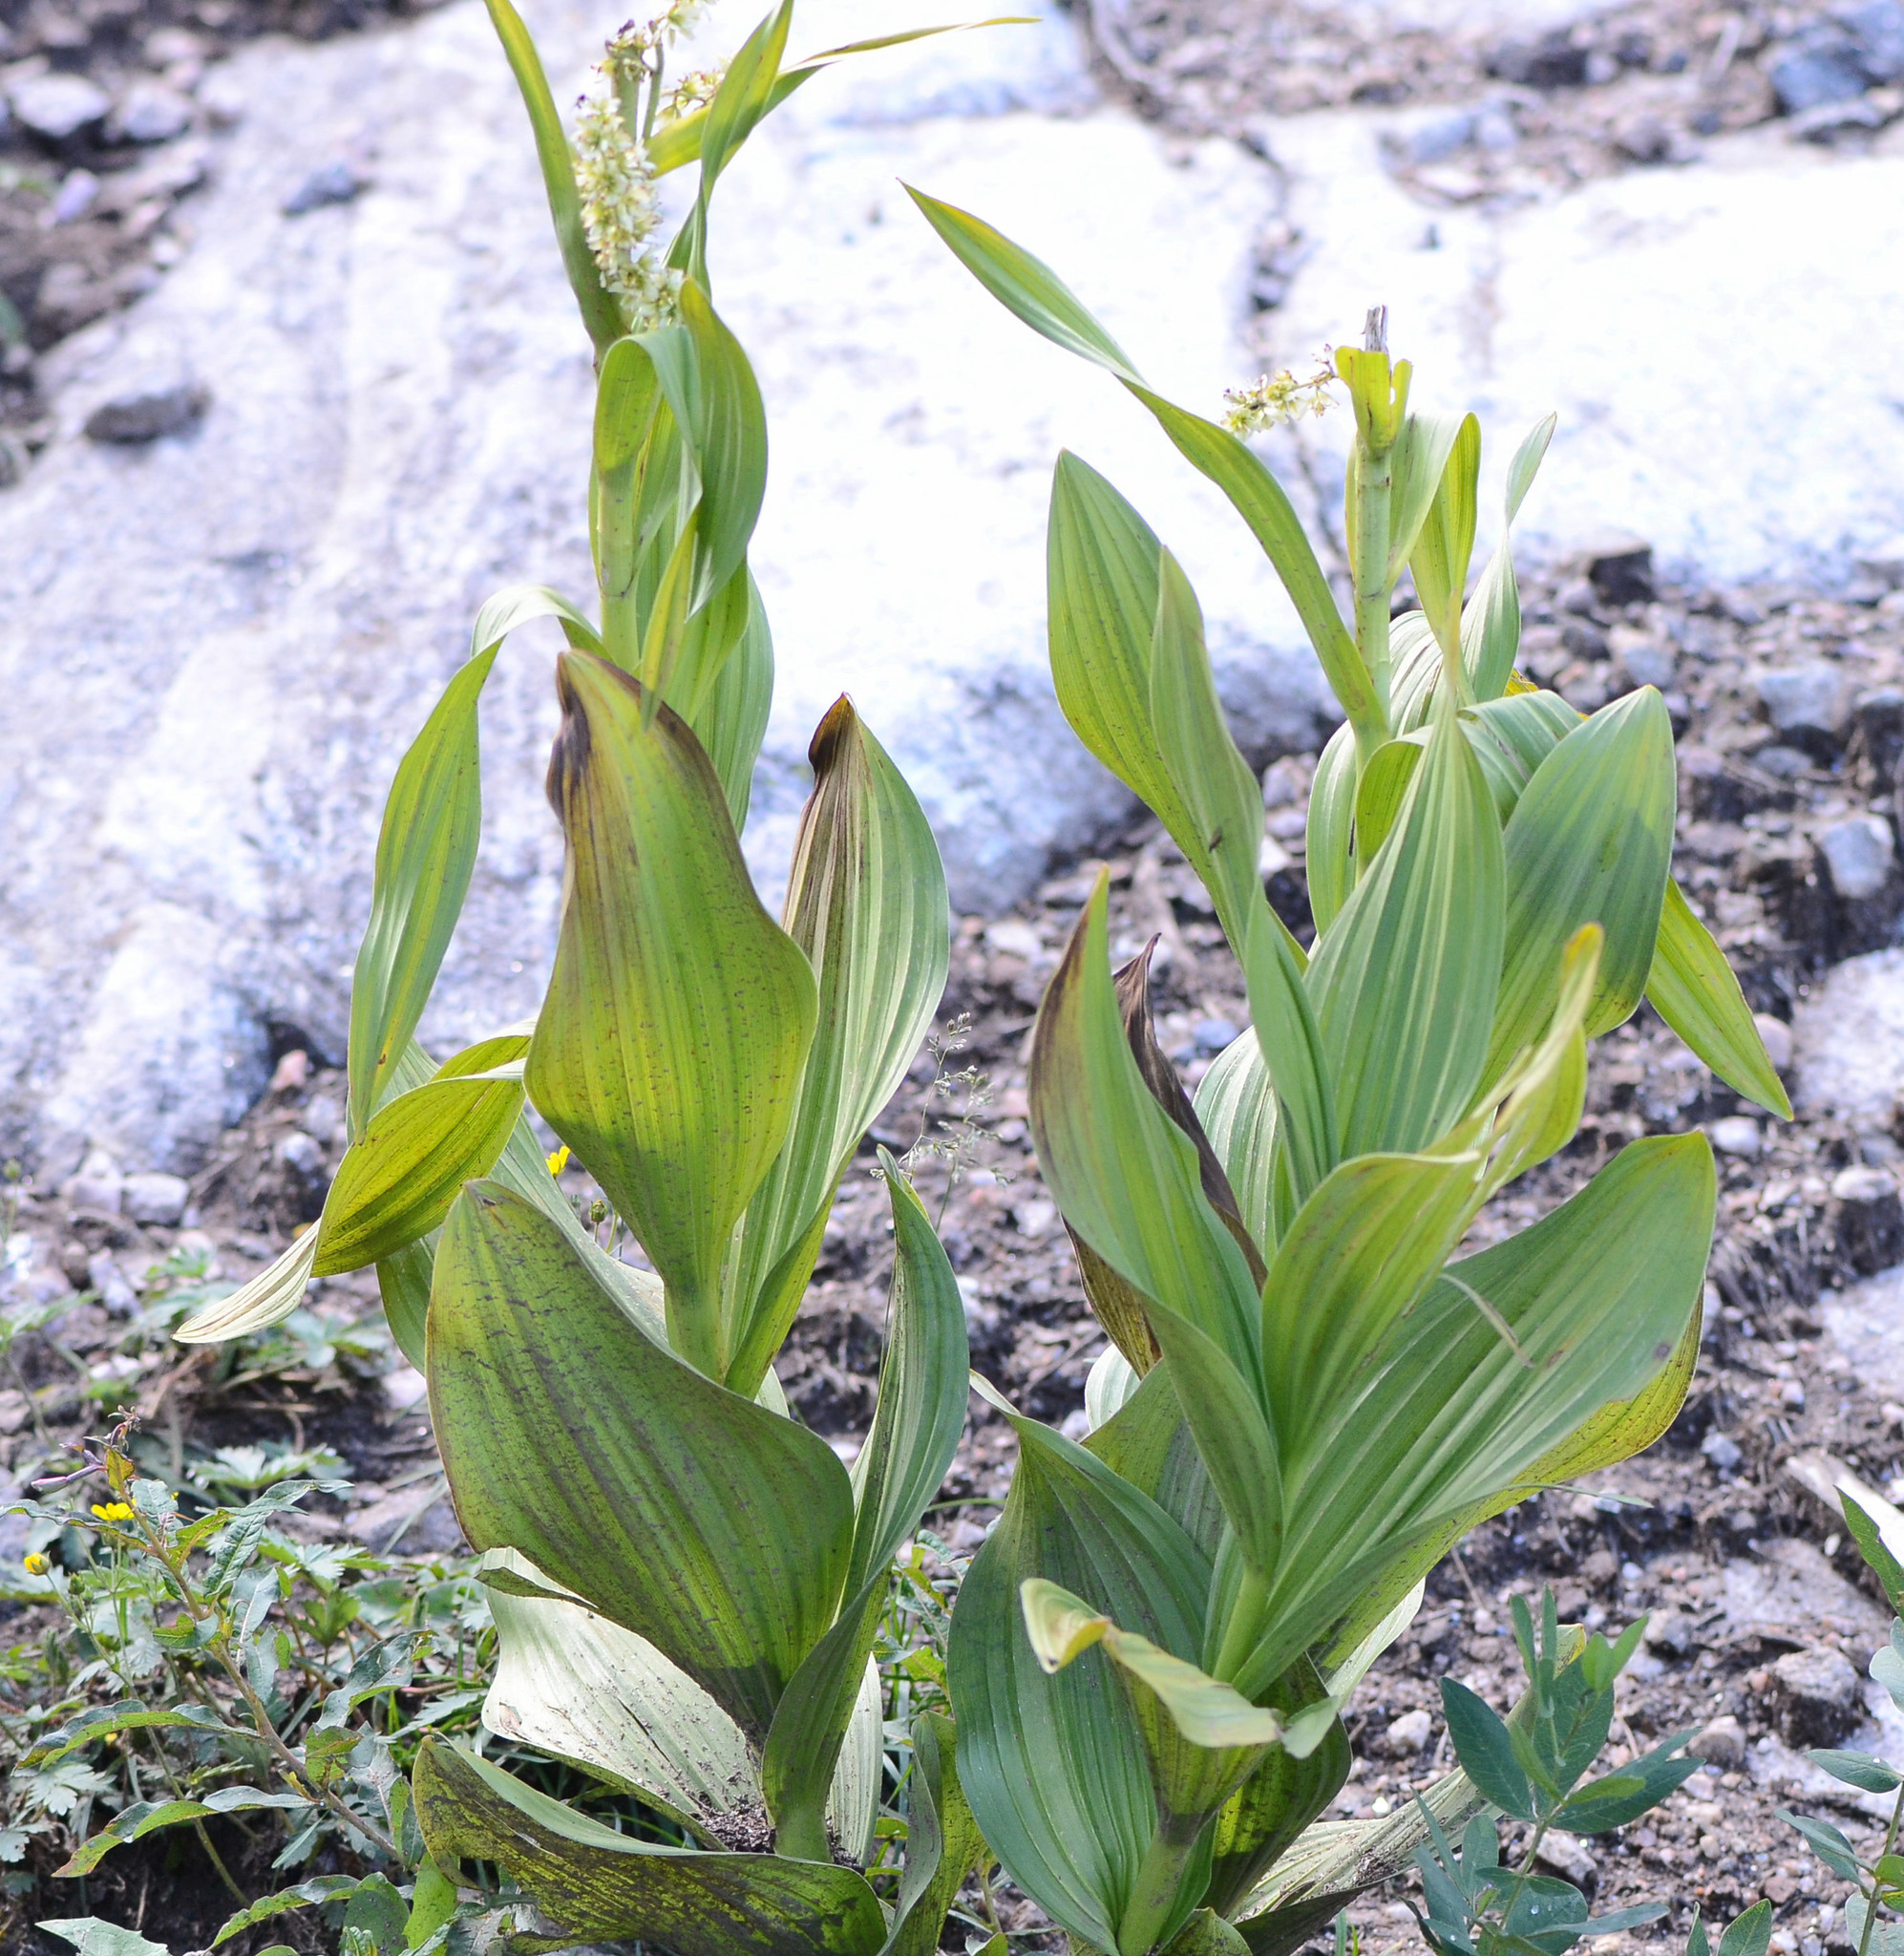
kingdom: Plantae
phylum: Tracheophyta
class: Liliopsida
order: Liliales
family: Melanthiaceae
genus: Veratrum
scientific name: Veratrum californicum
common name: California veratrum
